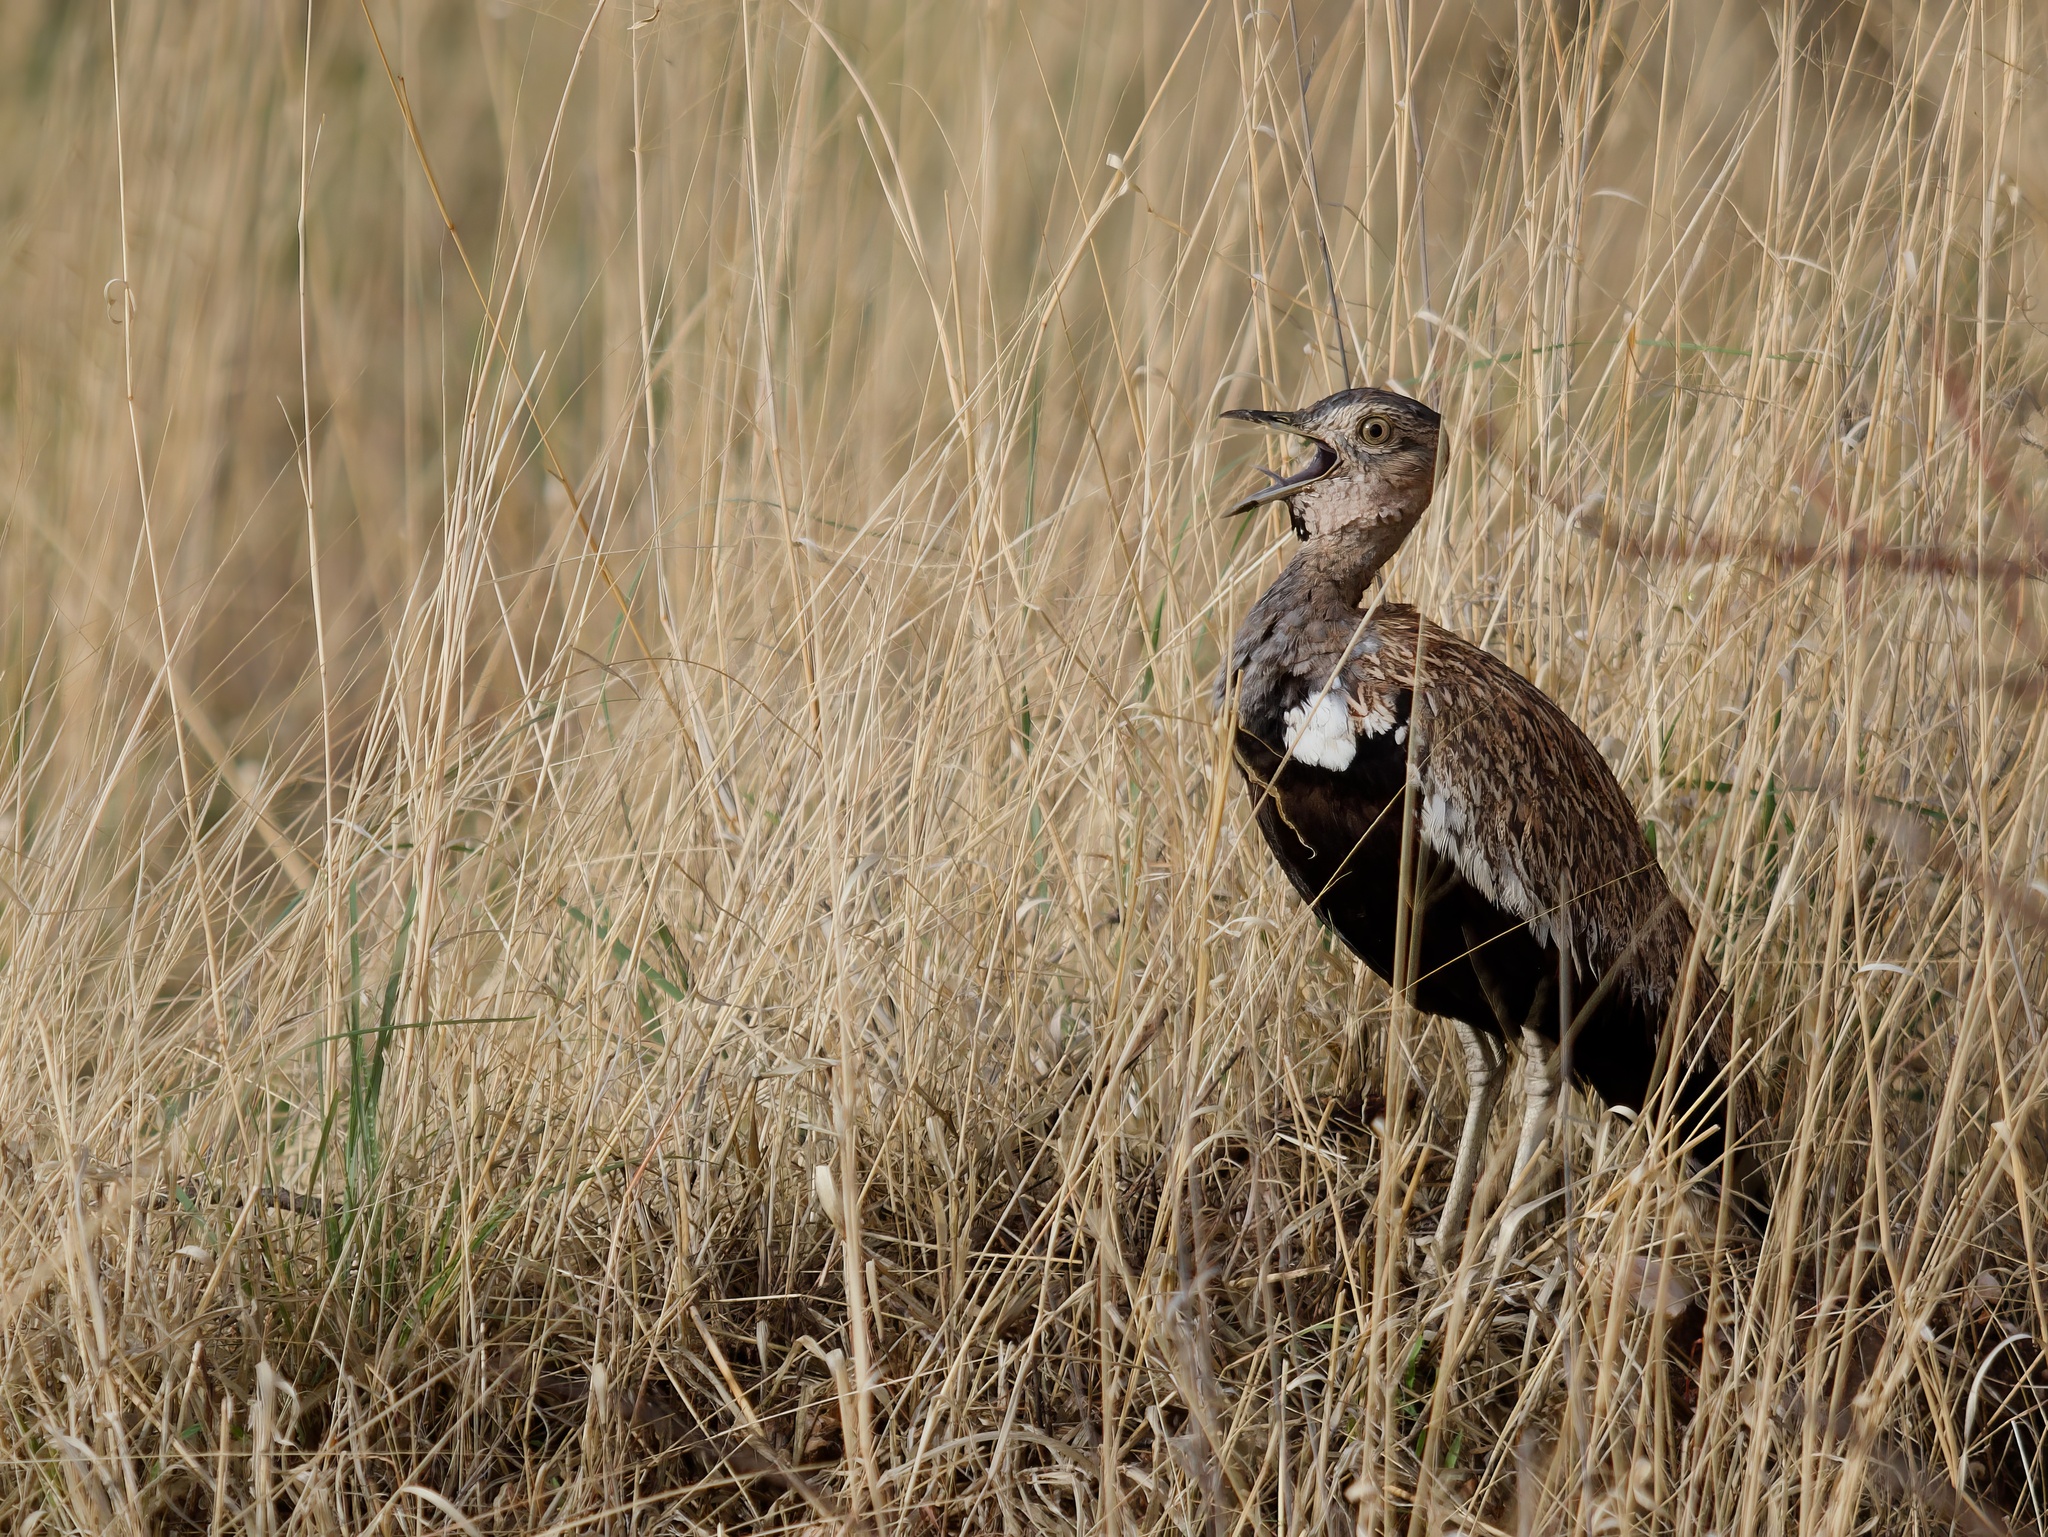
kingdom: Animalia
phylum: Chordata
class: Aves
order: Otidiformes
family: Otididae
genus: Lophotis
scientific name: Lophotis ruficrista
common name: Red-crested korhaan
